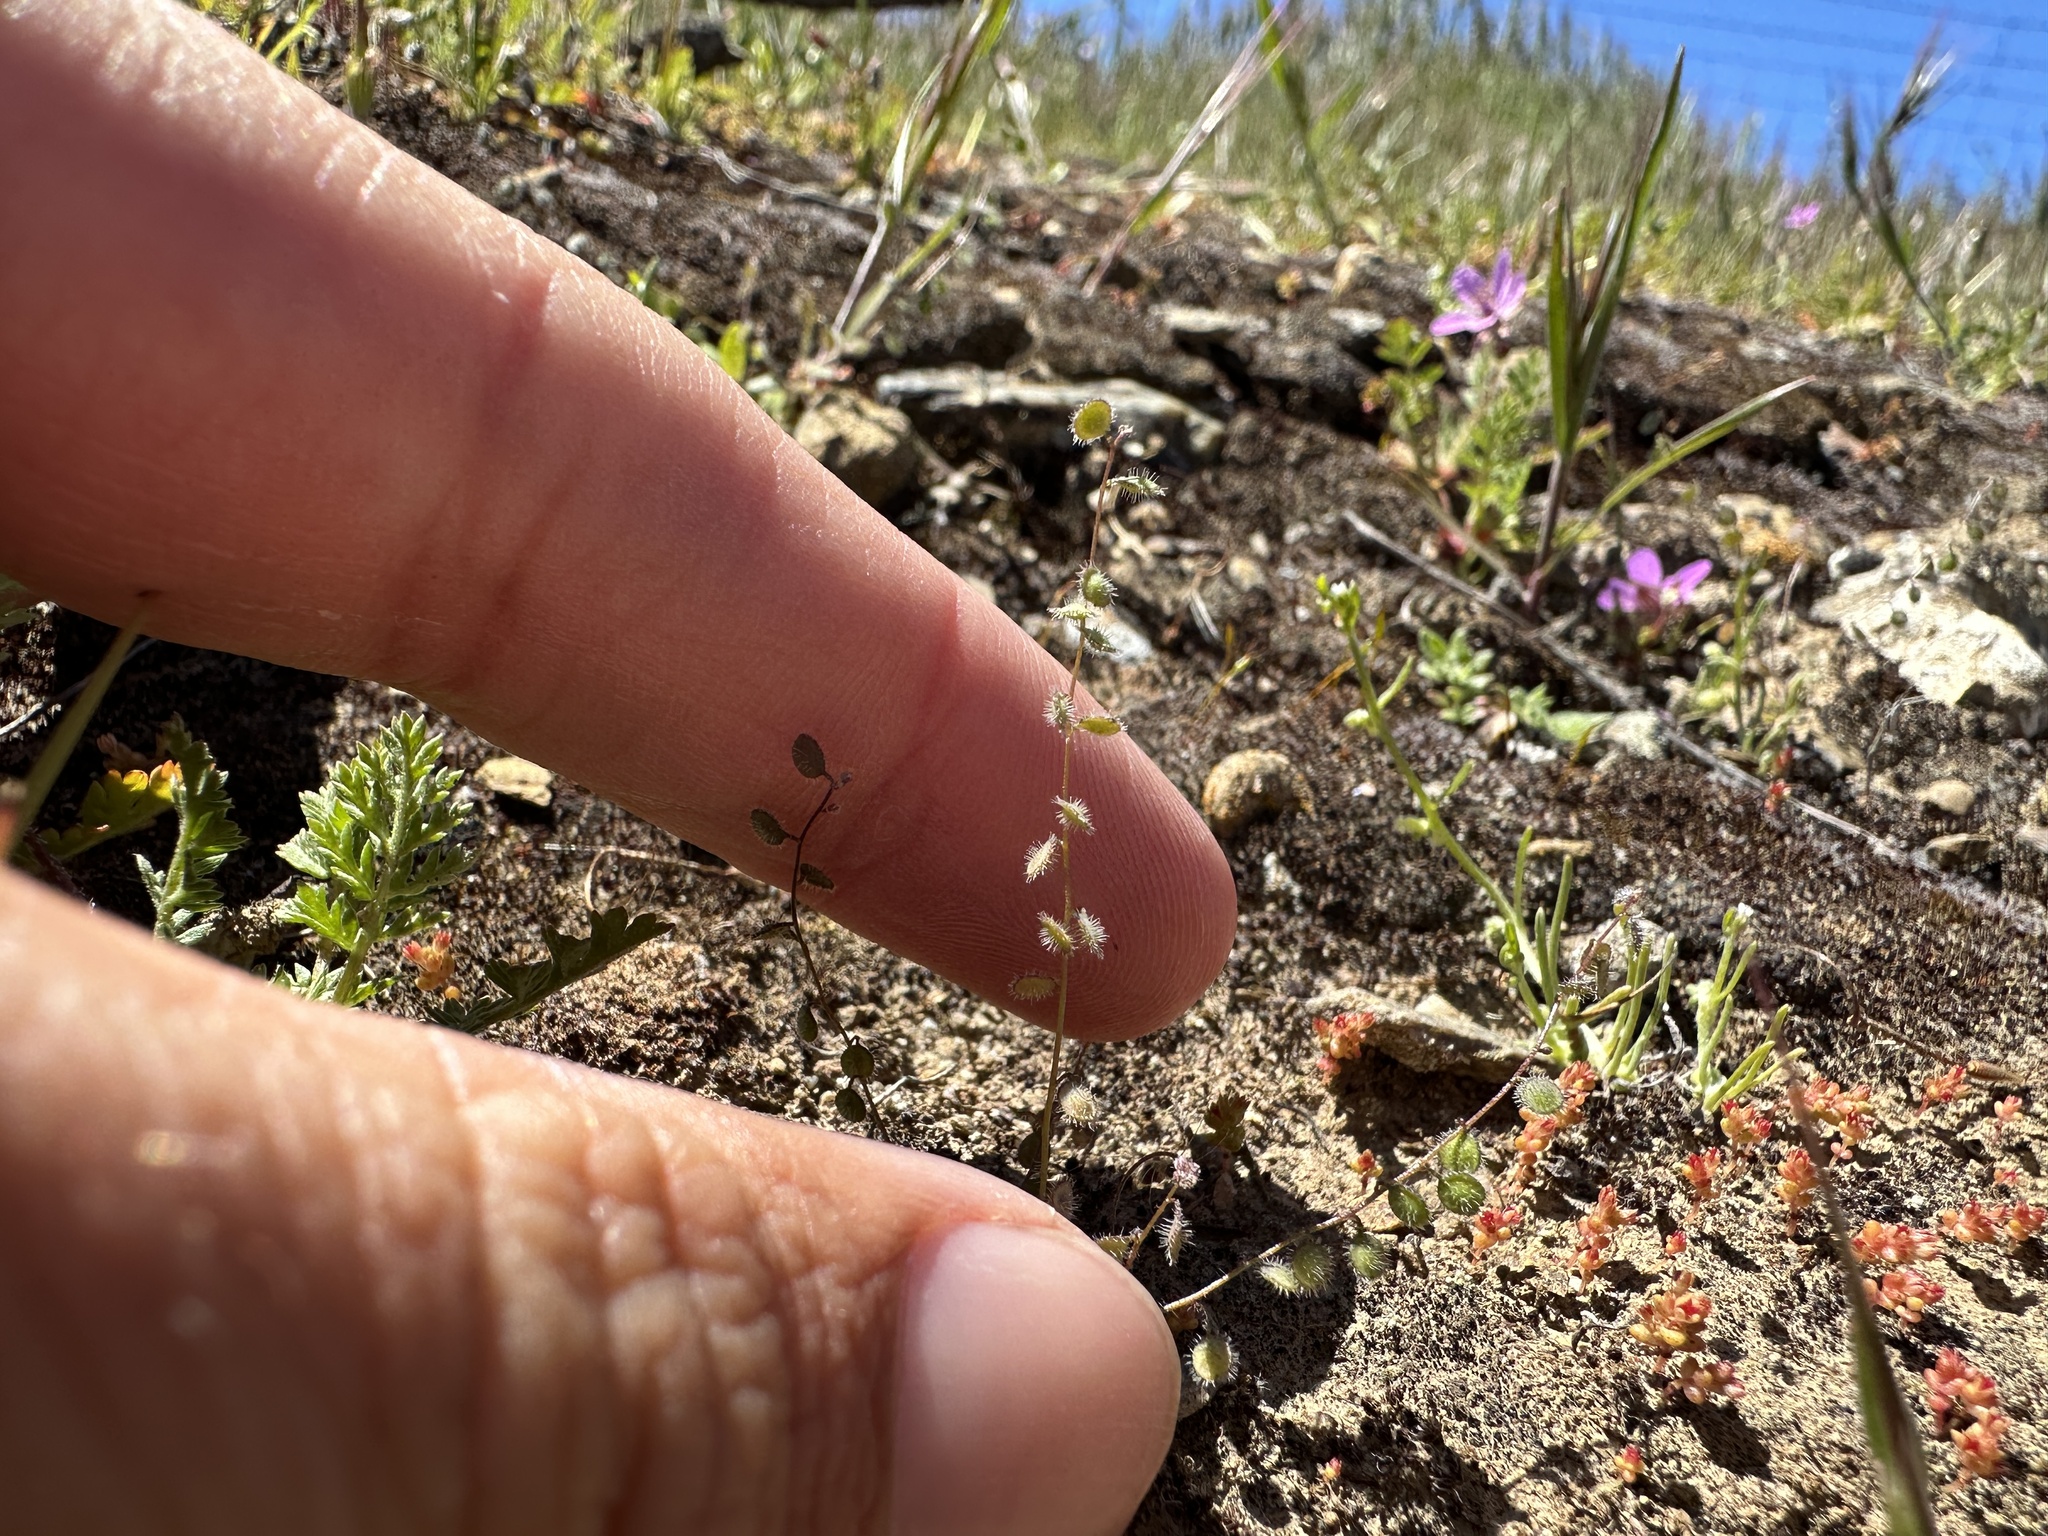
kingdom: Plantae
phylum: Tracheophyta
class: Magnoliopsida
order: Brassicales
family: Brassicaceae
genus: Athysanus
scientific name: Athysanus pusillus
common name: Common sandweed
